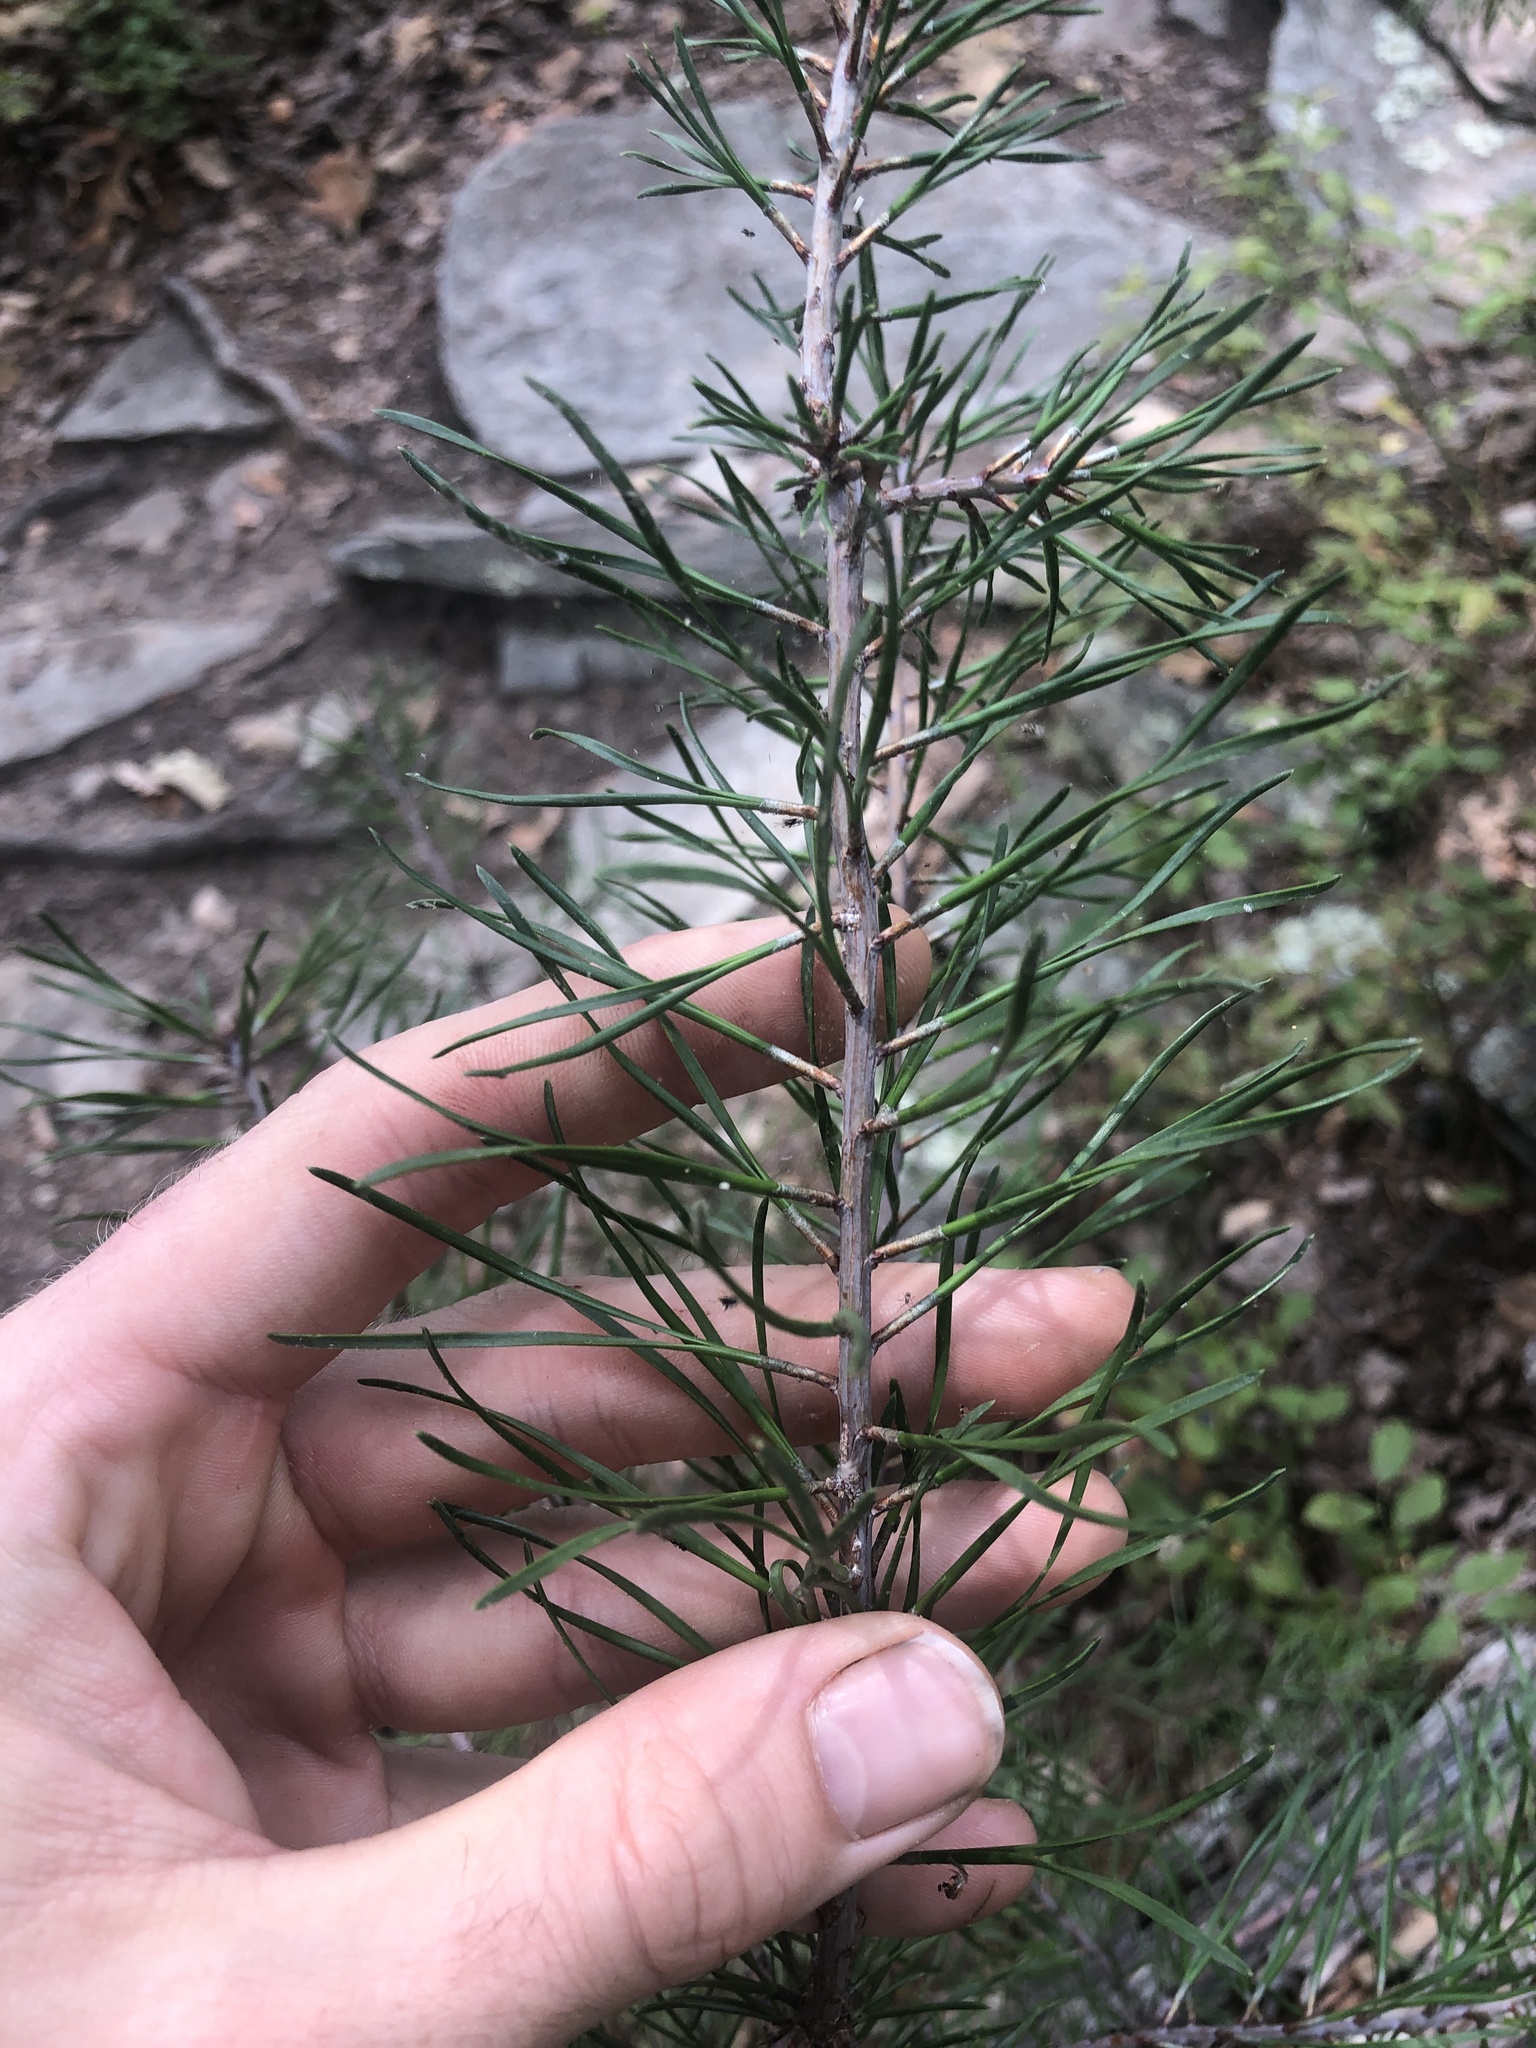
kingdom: Plantae
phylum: Tracheophyta
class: Pinopsida
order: Pinales
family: Pinaceae
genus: Pinus
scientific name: Pinus virginiana
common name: Scrub pine
